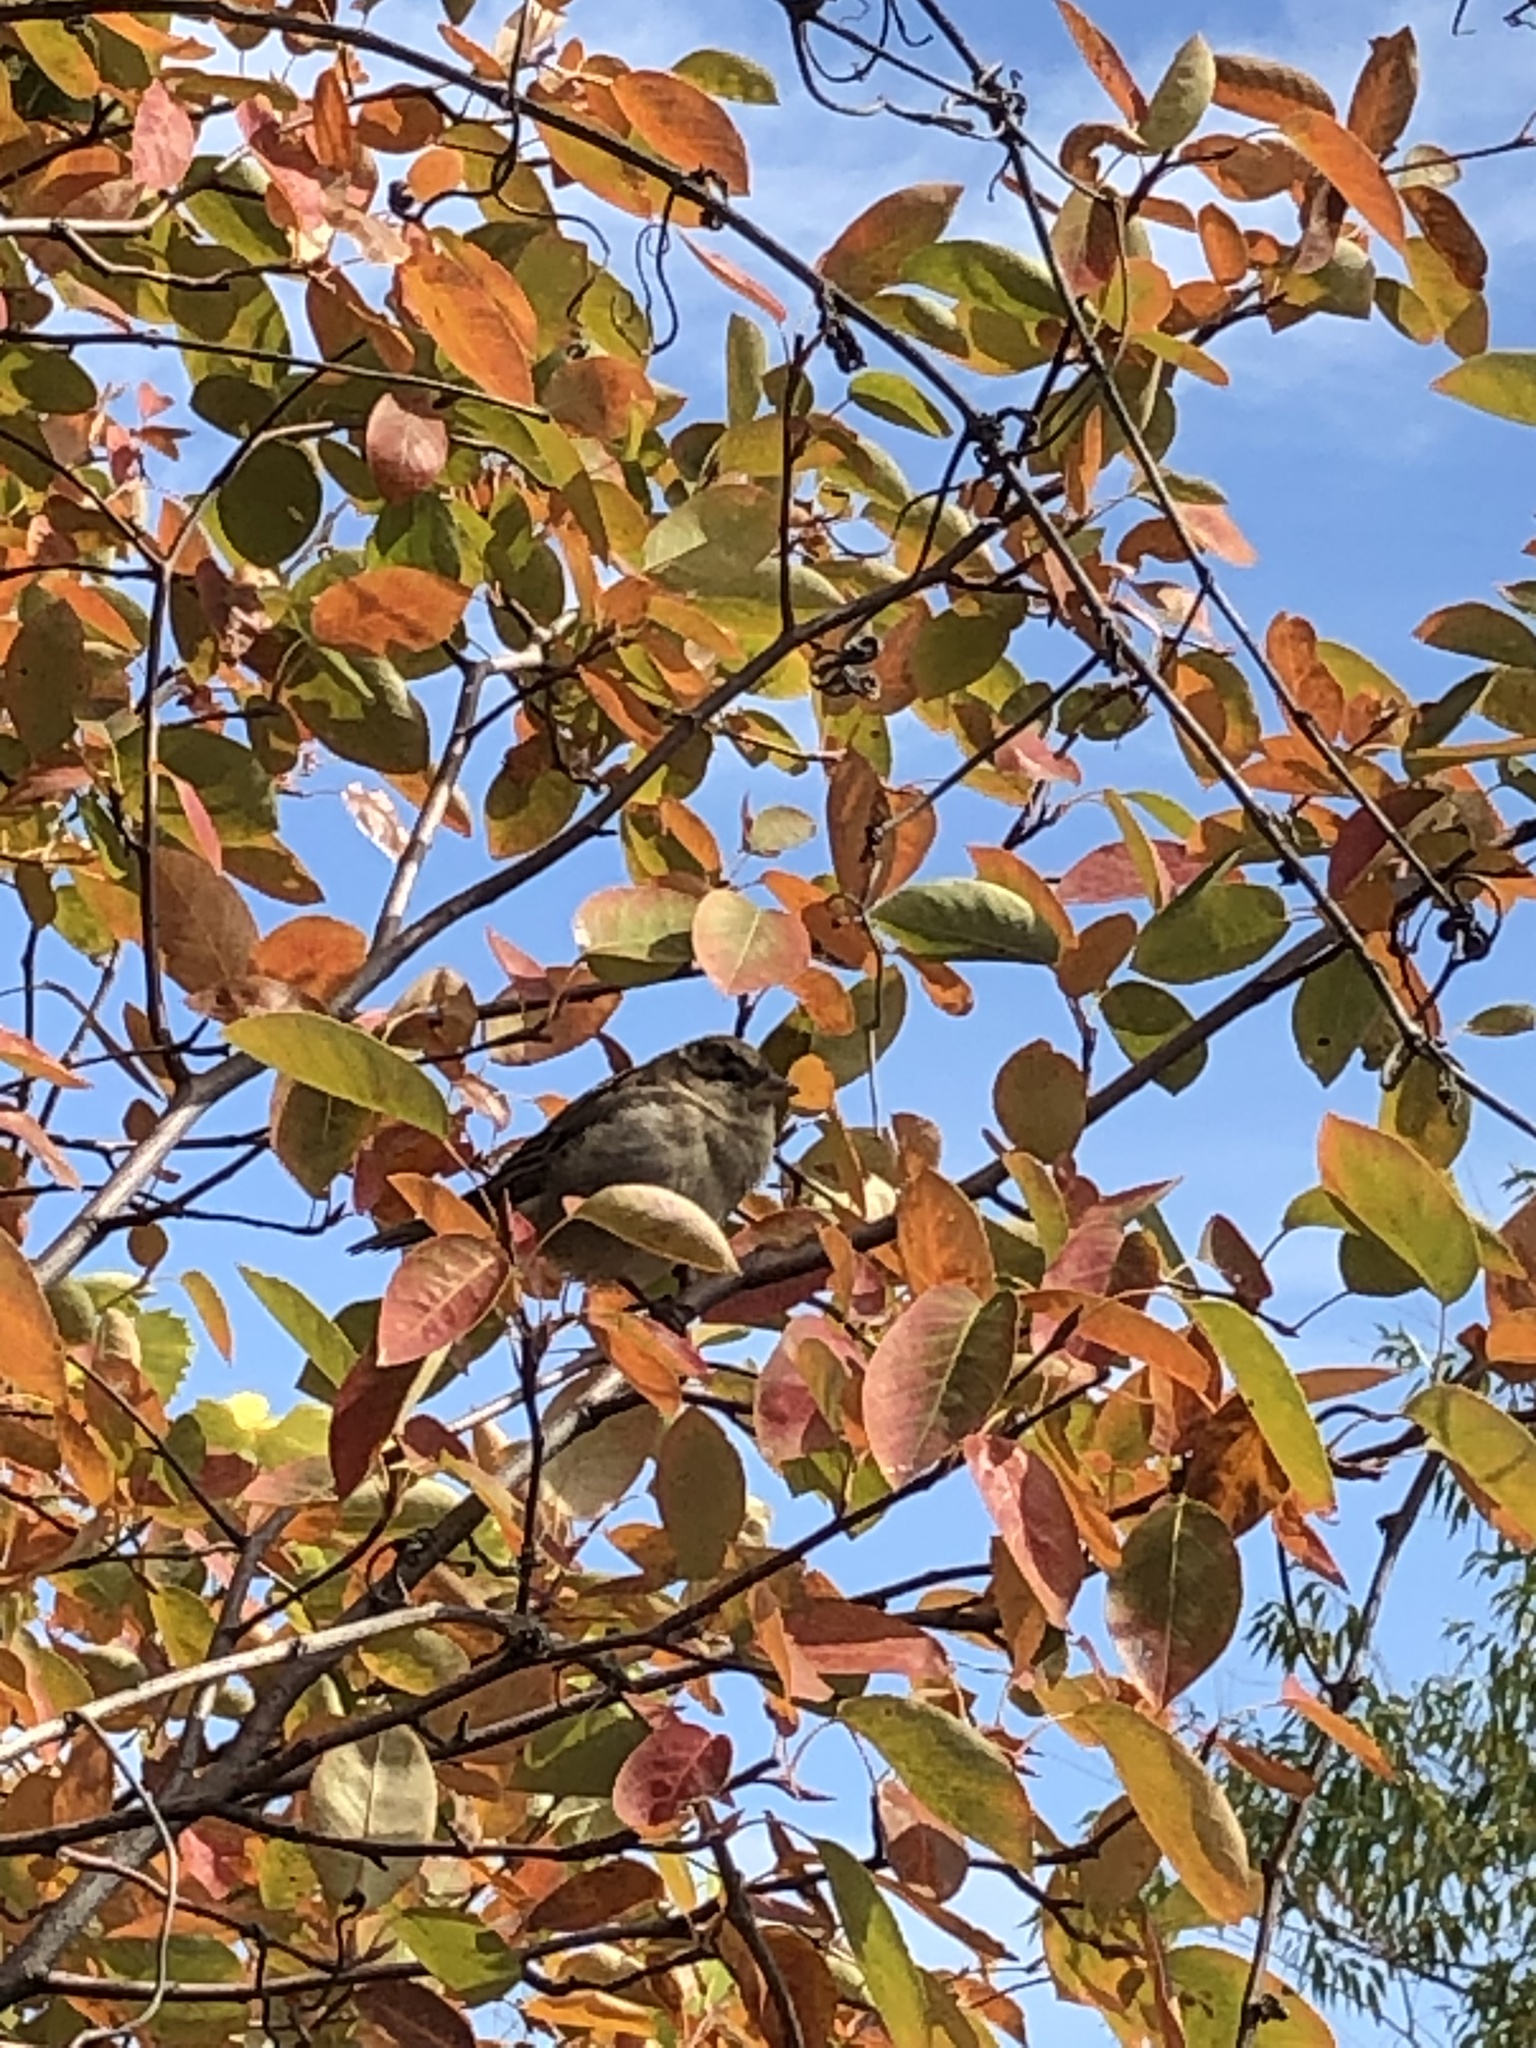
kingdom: Animalia
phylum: Chordata
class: Aves
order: Passeriformes
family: Passeridae
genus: Passer
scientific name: Passer domesticus
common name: House sparrow
